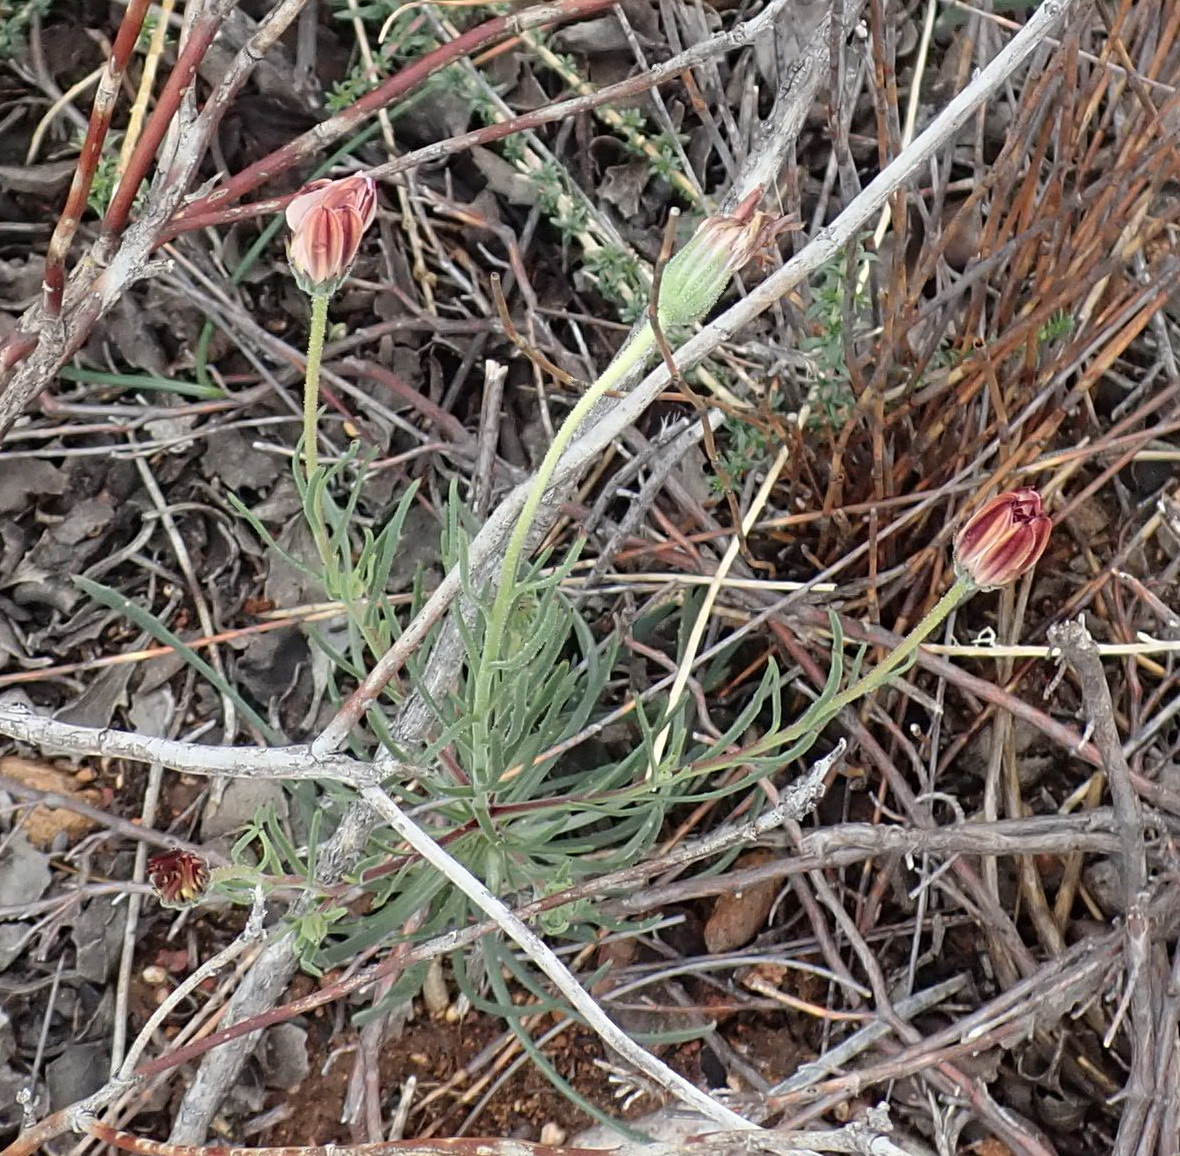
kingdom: Plantae
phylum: Tracheophyta
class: Magnoliopsida
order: Asterales
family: Asteraceae
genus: Dimorphotheca
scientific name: Dimorphotheca montana
